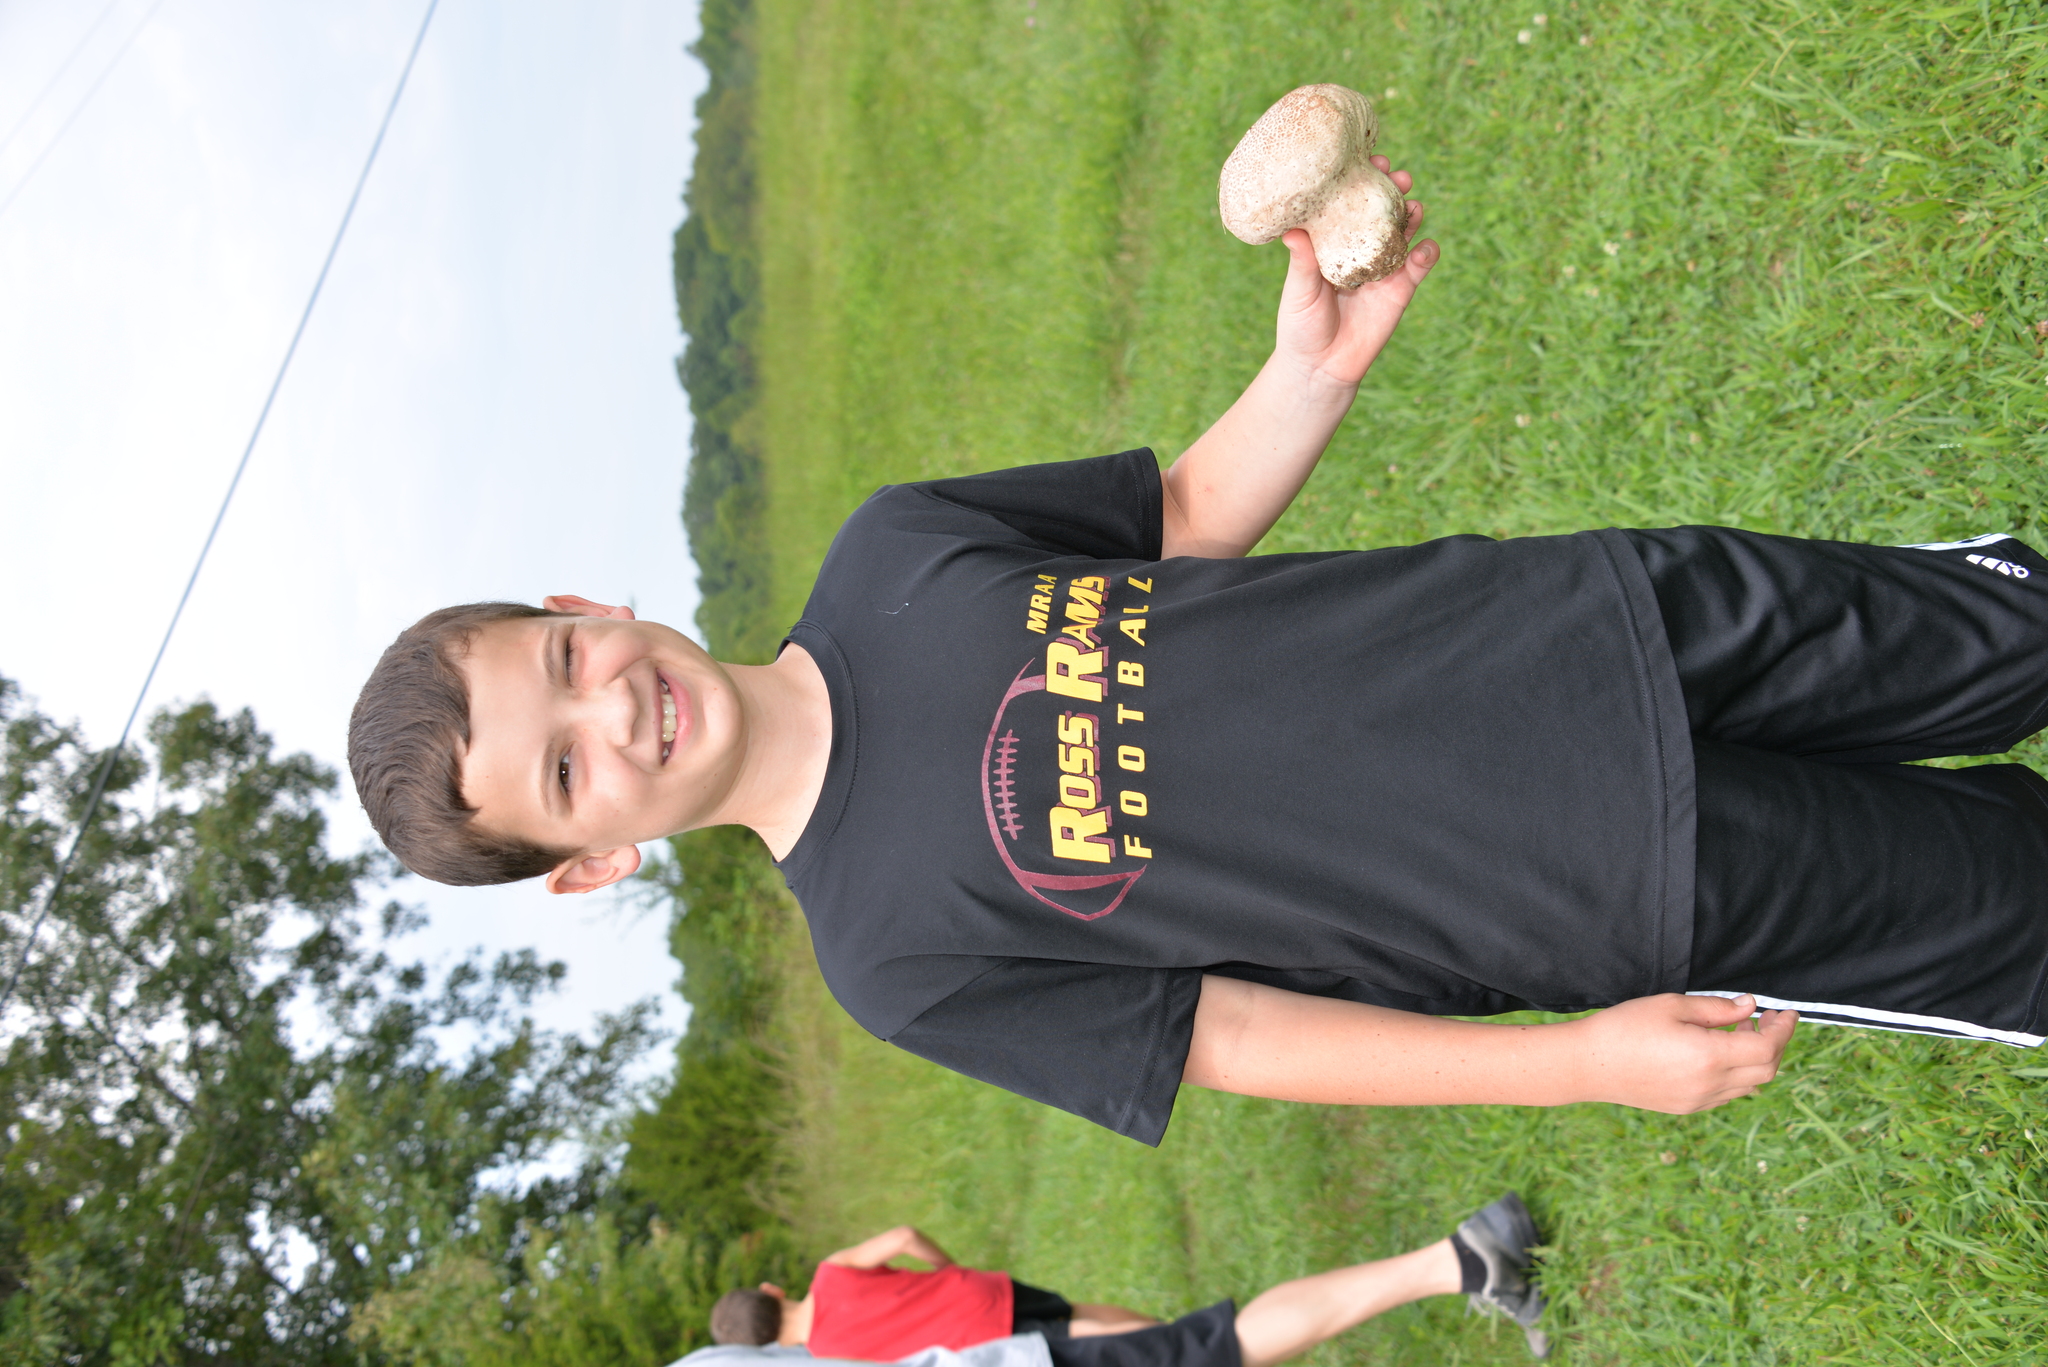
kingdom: Fungi
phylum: Basidiomycota
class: Agaricomycetes
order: Agaricales
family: Lycoperdaceae
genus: Calvatia
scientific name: Calvatia cyathiformis
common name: Purple-spored puffball
